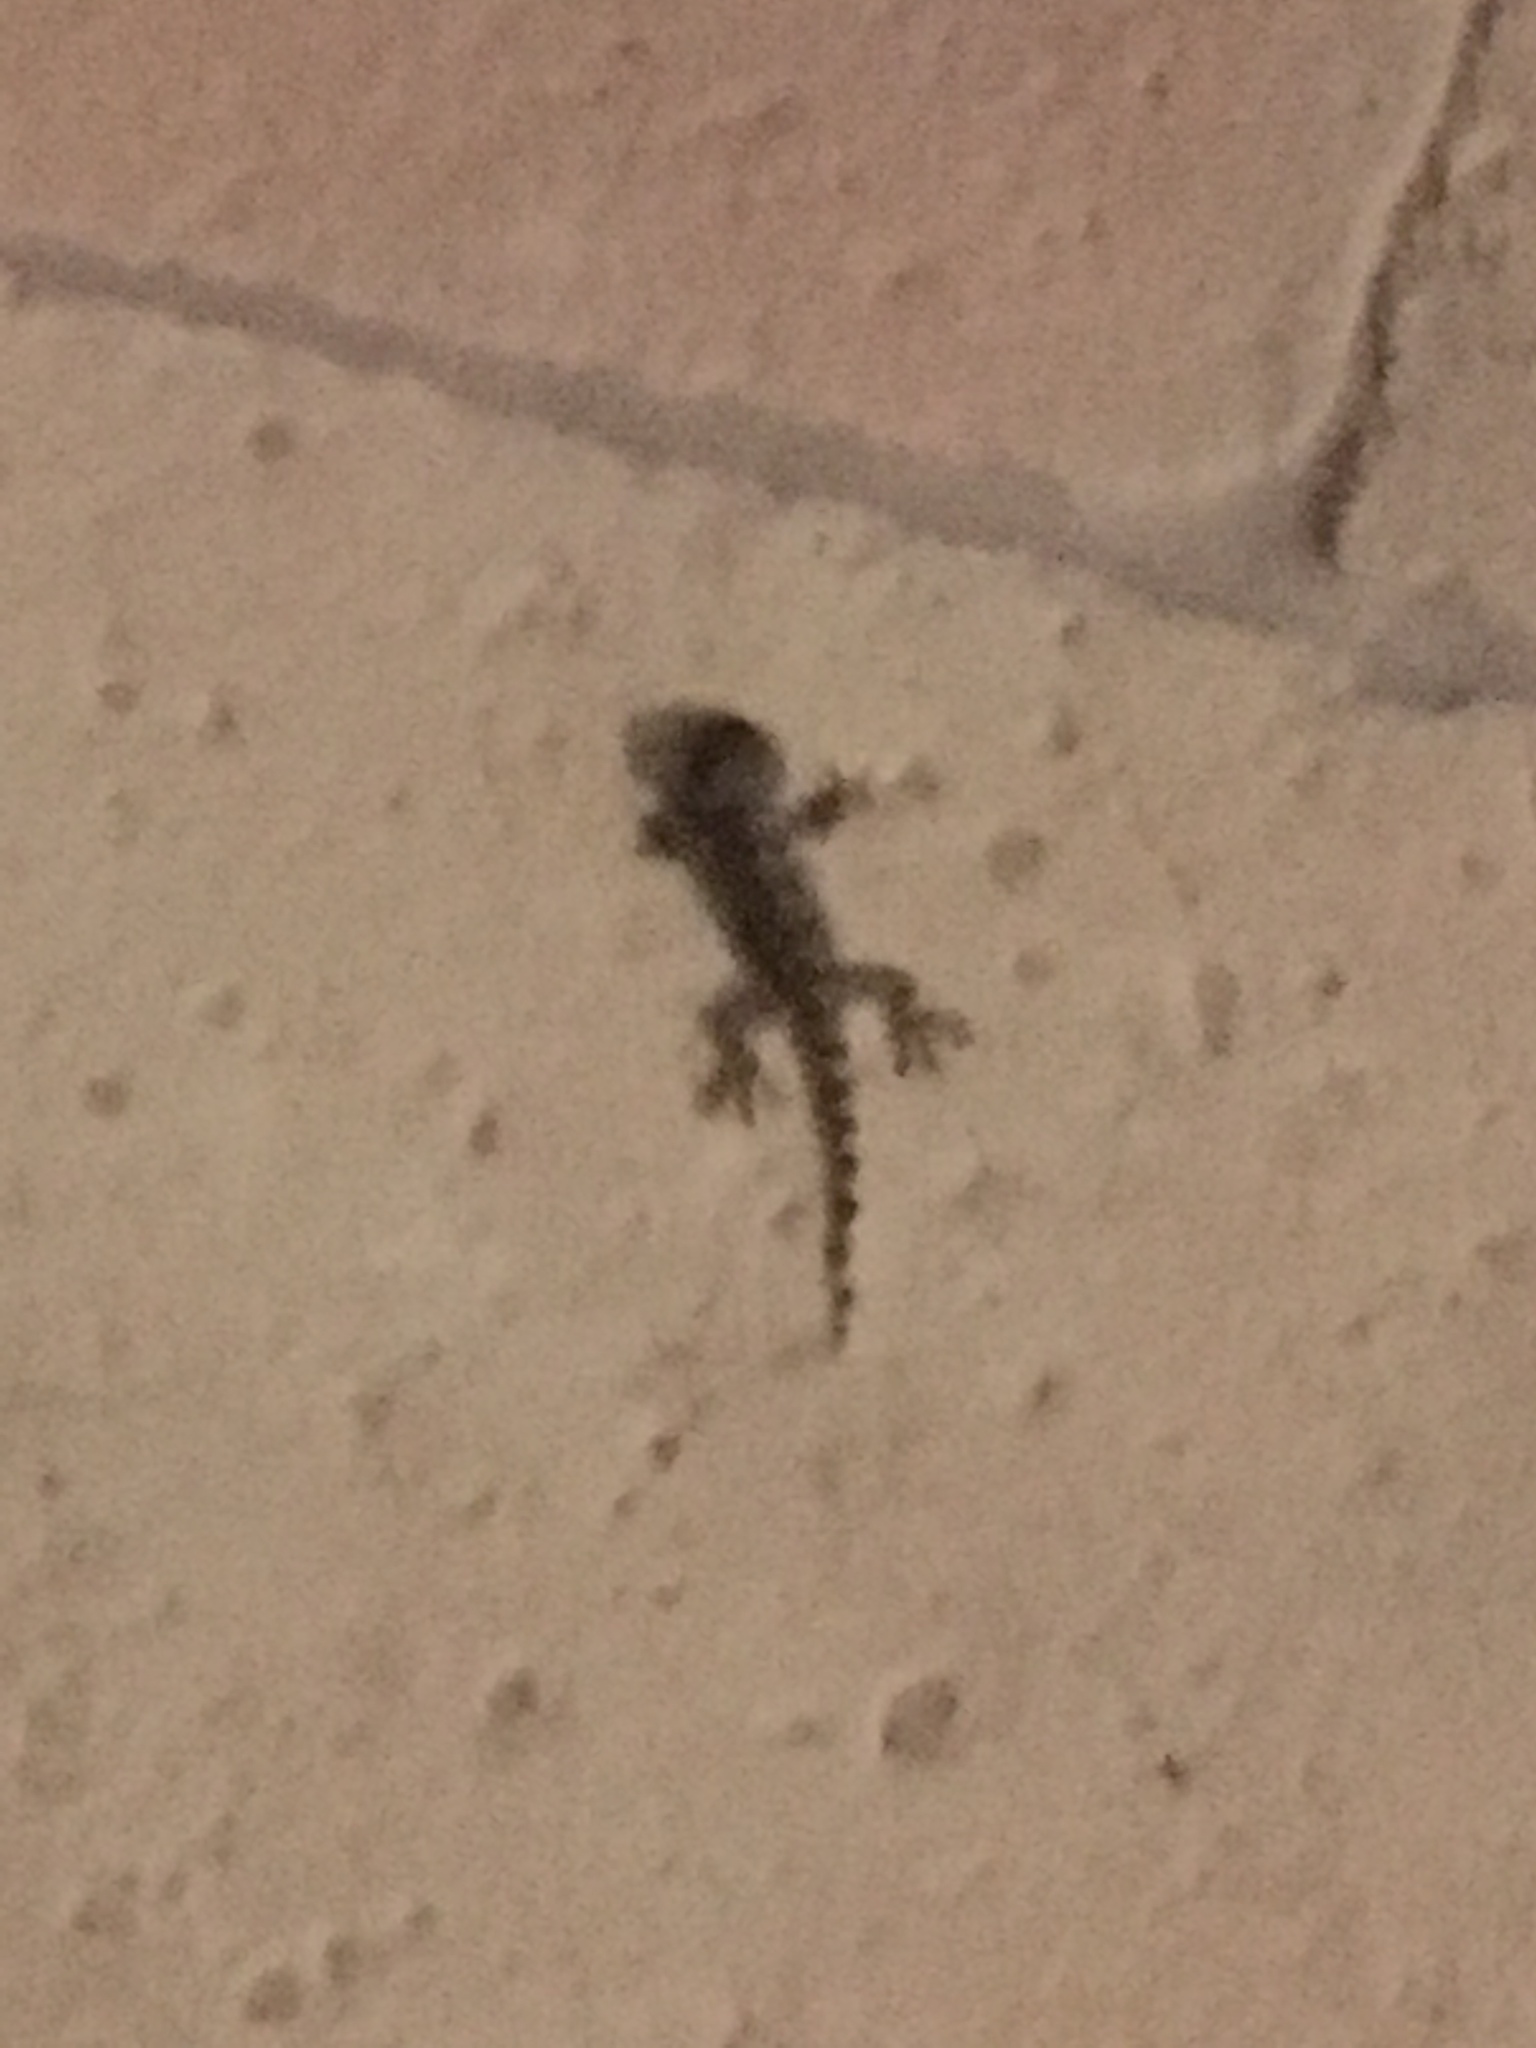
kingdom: Animalia
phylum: Chordata
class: Squamata
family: Phyllodactylidae
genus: Tarentola
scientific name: Tarentola mauritanica
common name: Moorish gecko
